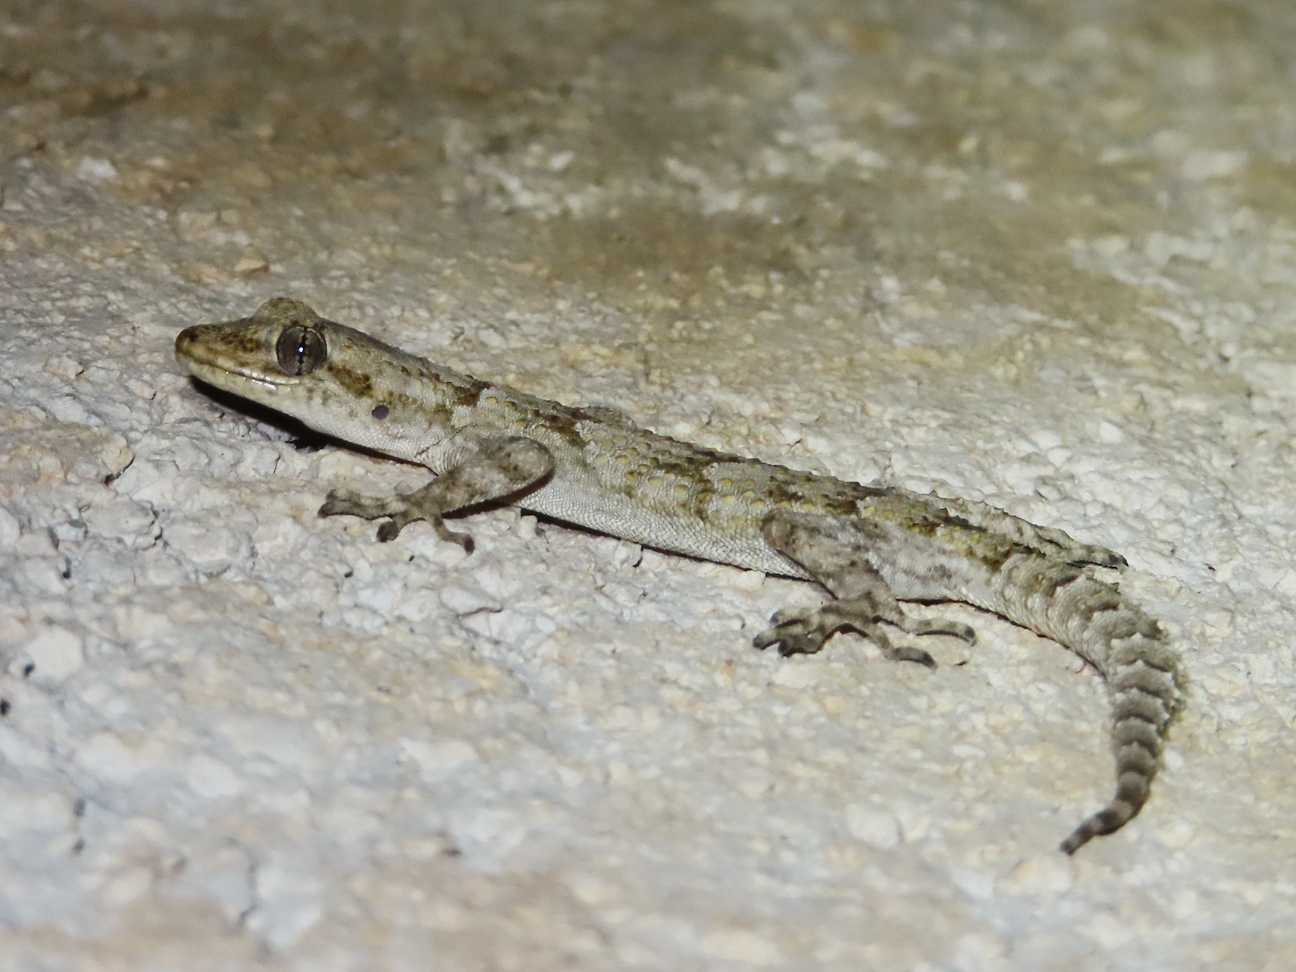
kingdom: Animalia
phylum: Chordata
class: Squamata
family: Gekkonidae
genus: Mediodactylus
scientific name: Mediodactylus kotschyi
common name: Kotschy's gecko
